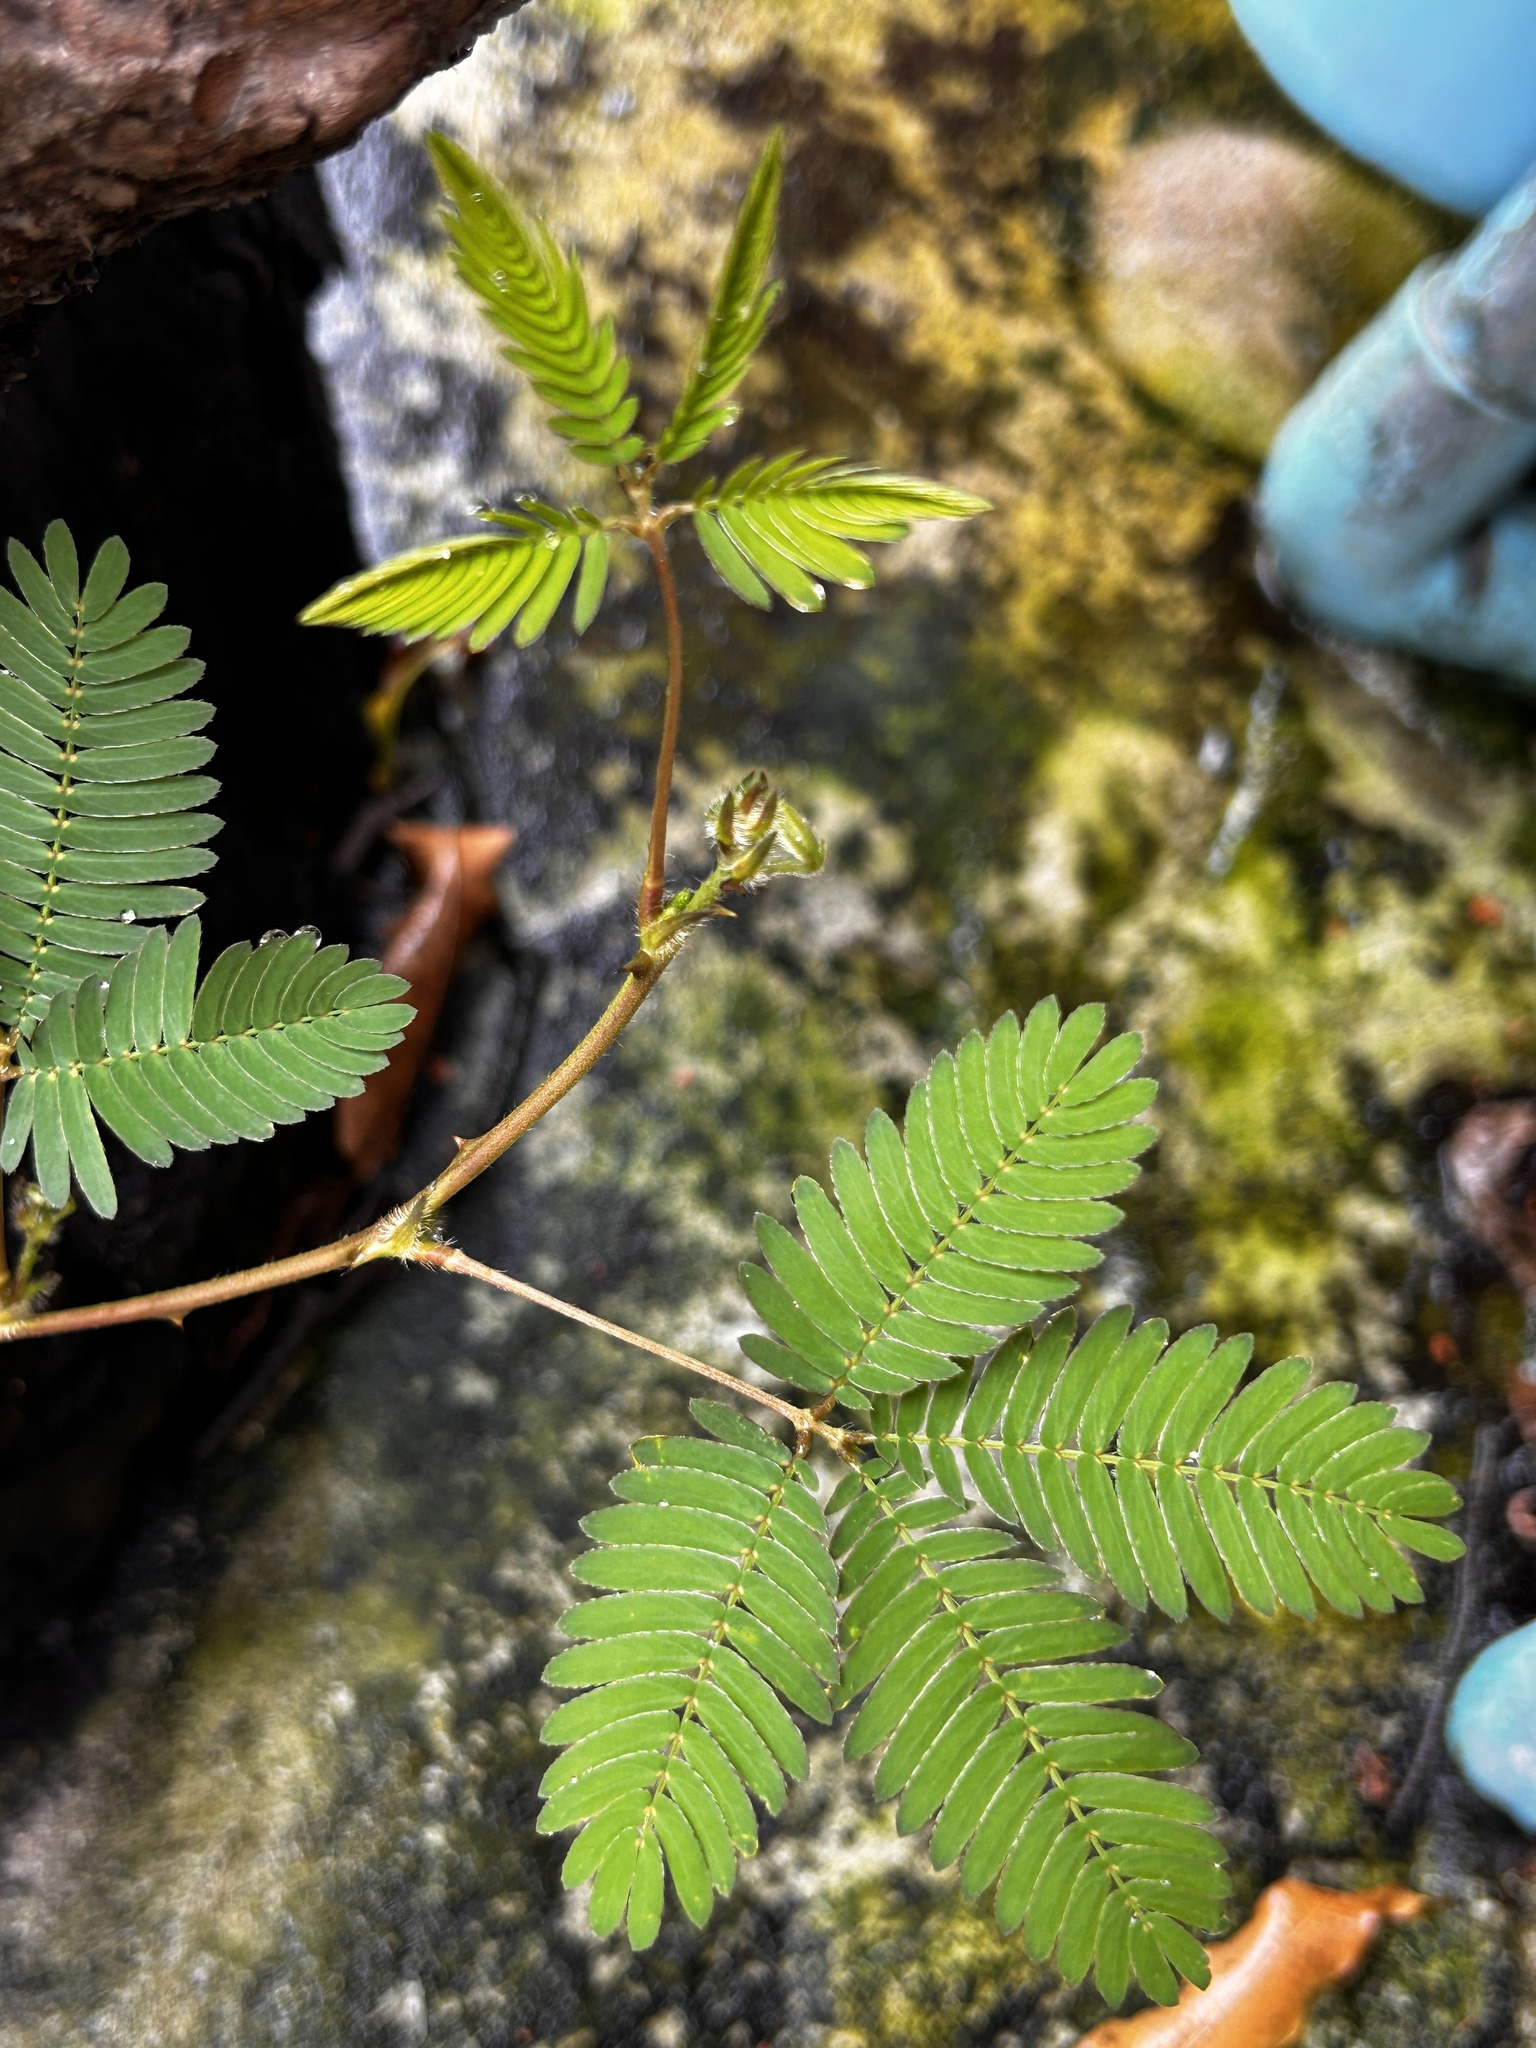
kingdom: Plantae
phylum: Tracheophyta
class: Magnoliopsida
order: Fabales
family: Fabaceae
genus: Mimosa
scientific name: Mimosa pudica
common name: Sensitive plant
